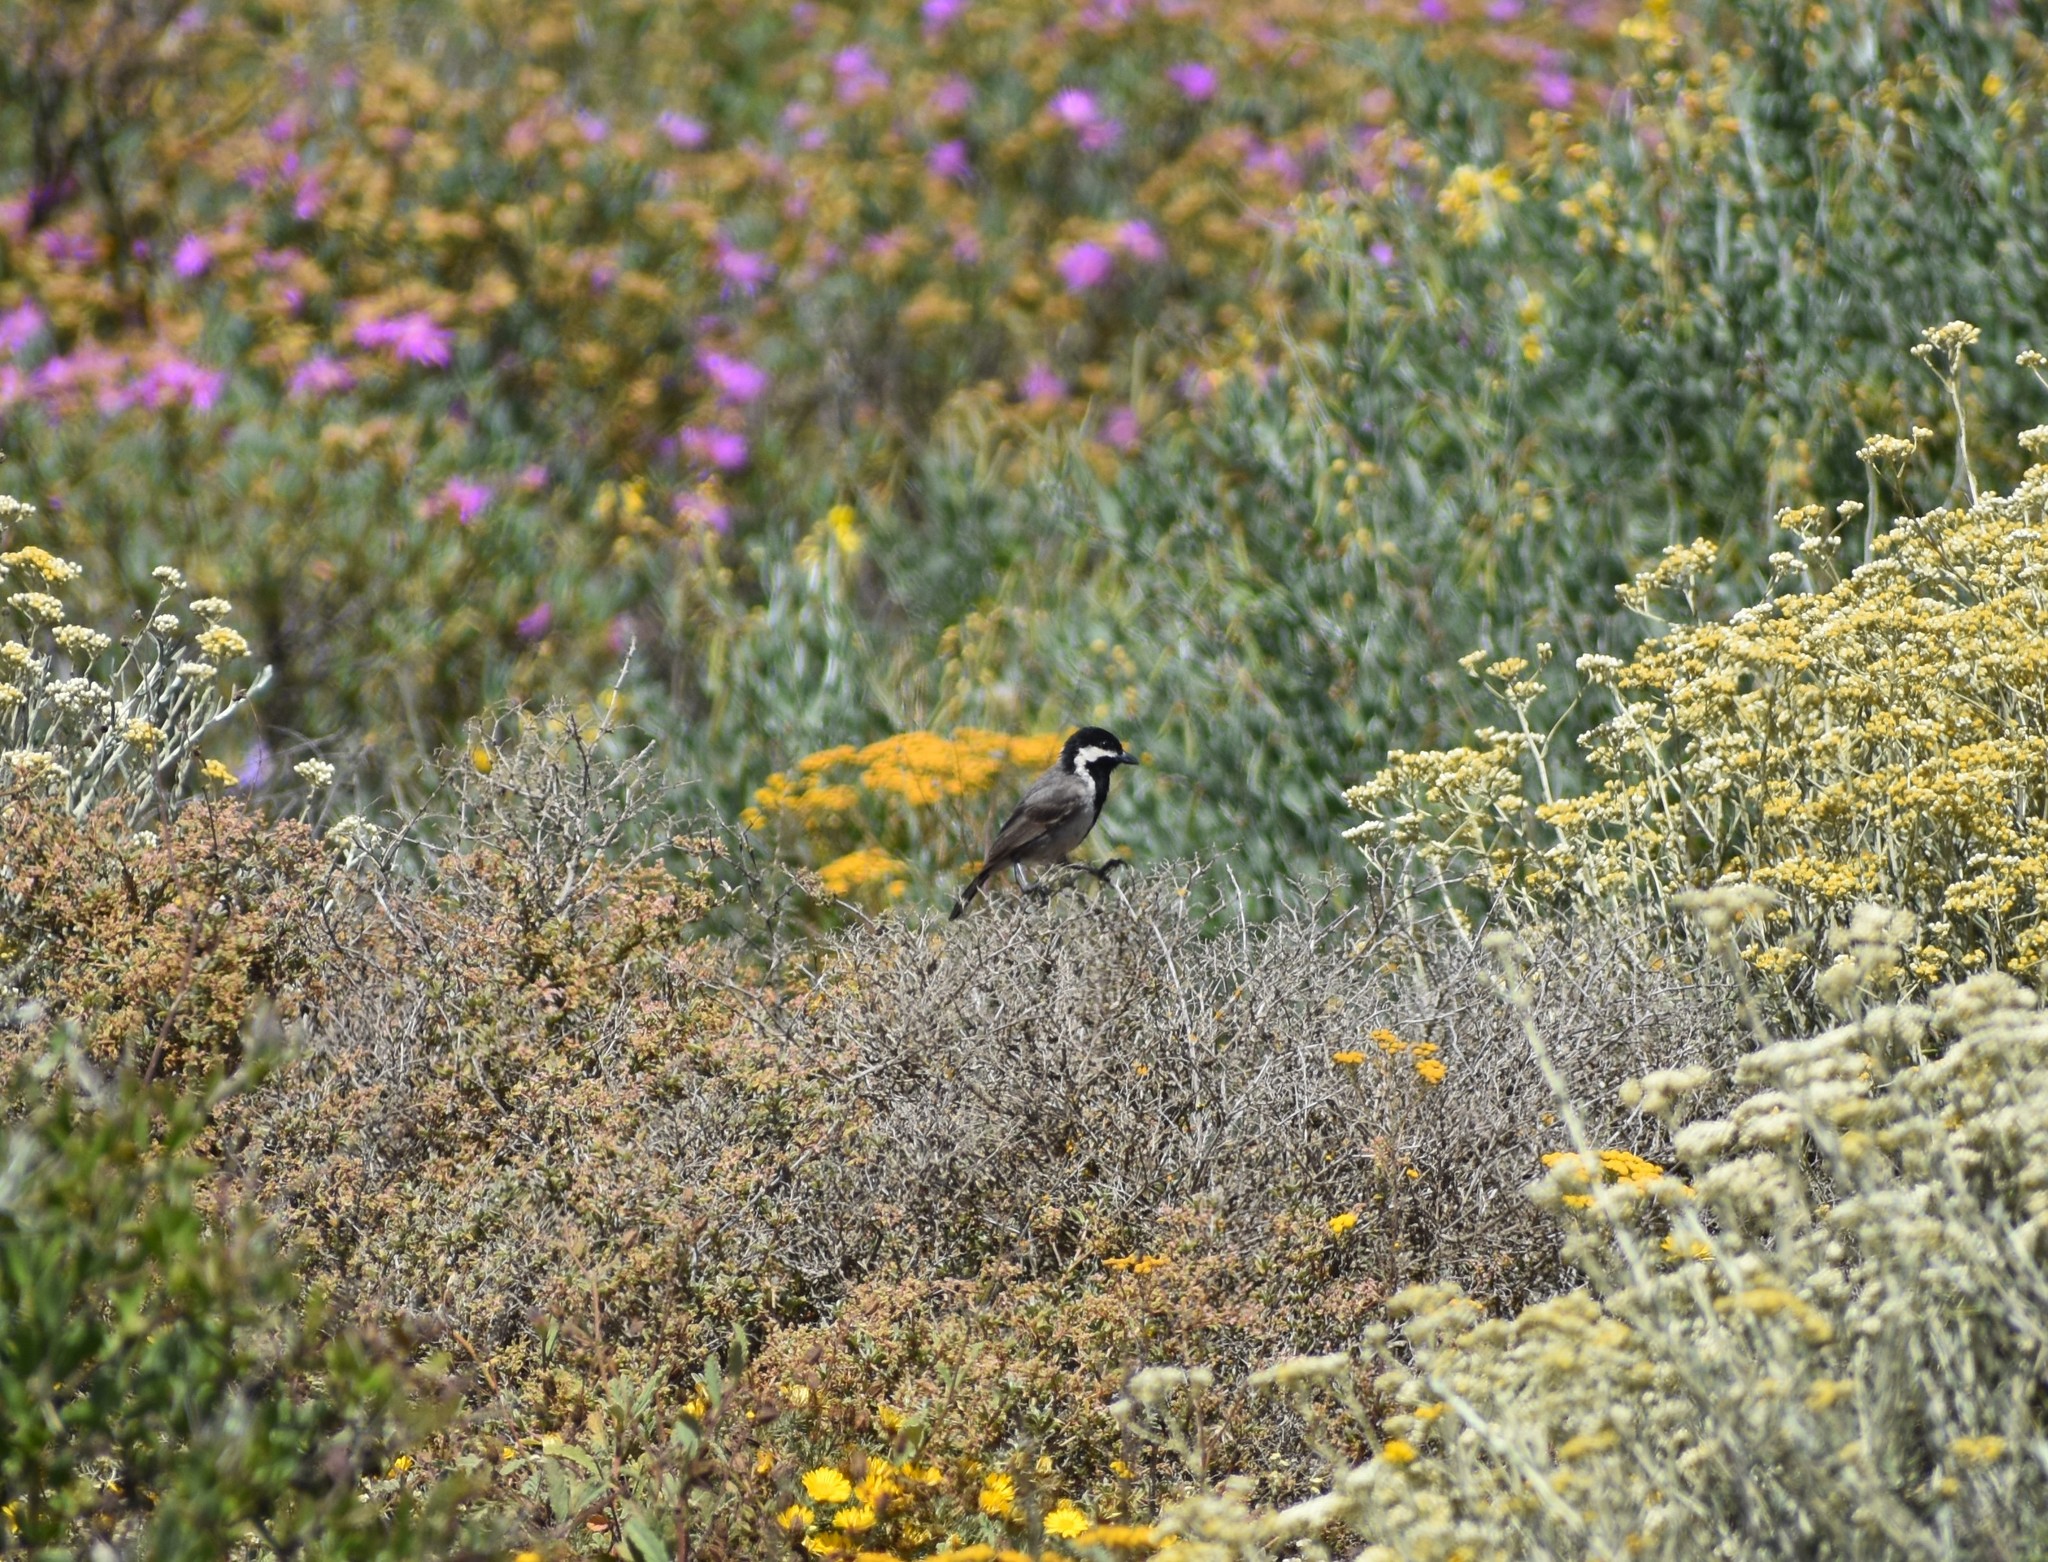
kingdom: Animalia
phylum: Chordata
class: Aves
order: Passeriformes
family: Paridae
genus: Parus
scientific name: Parus afer
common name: Grey tit
